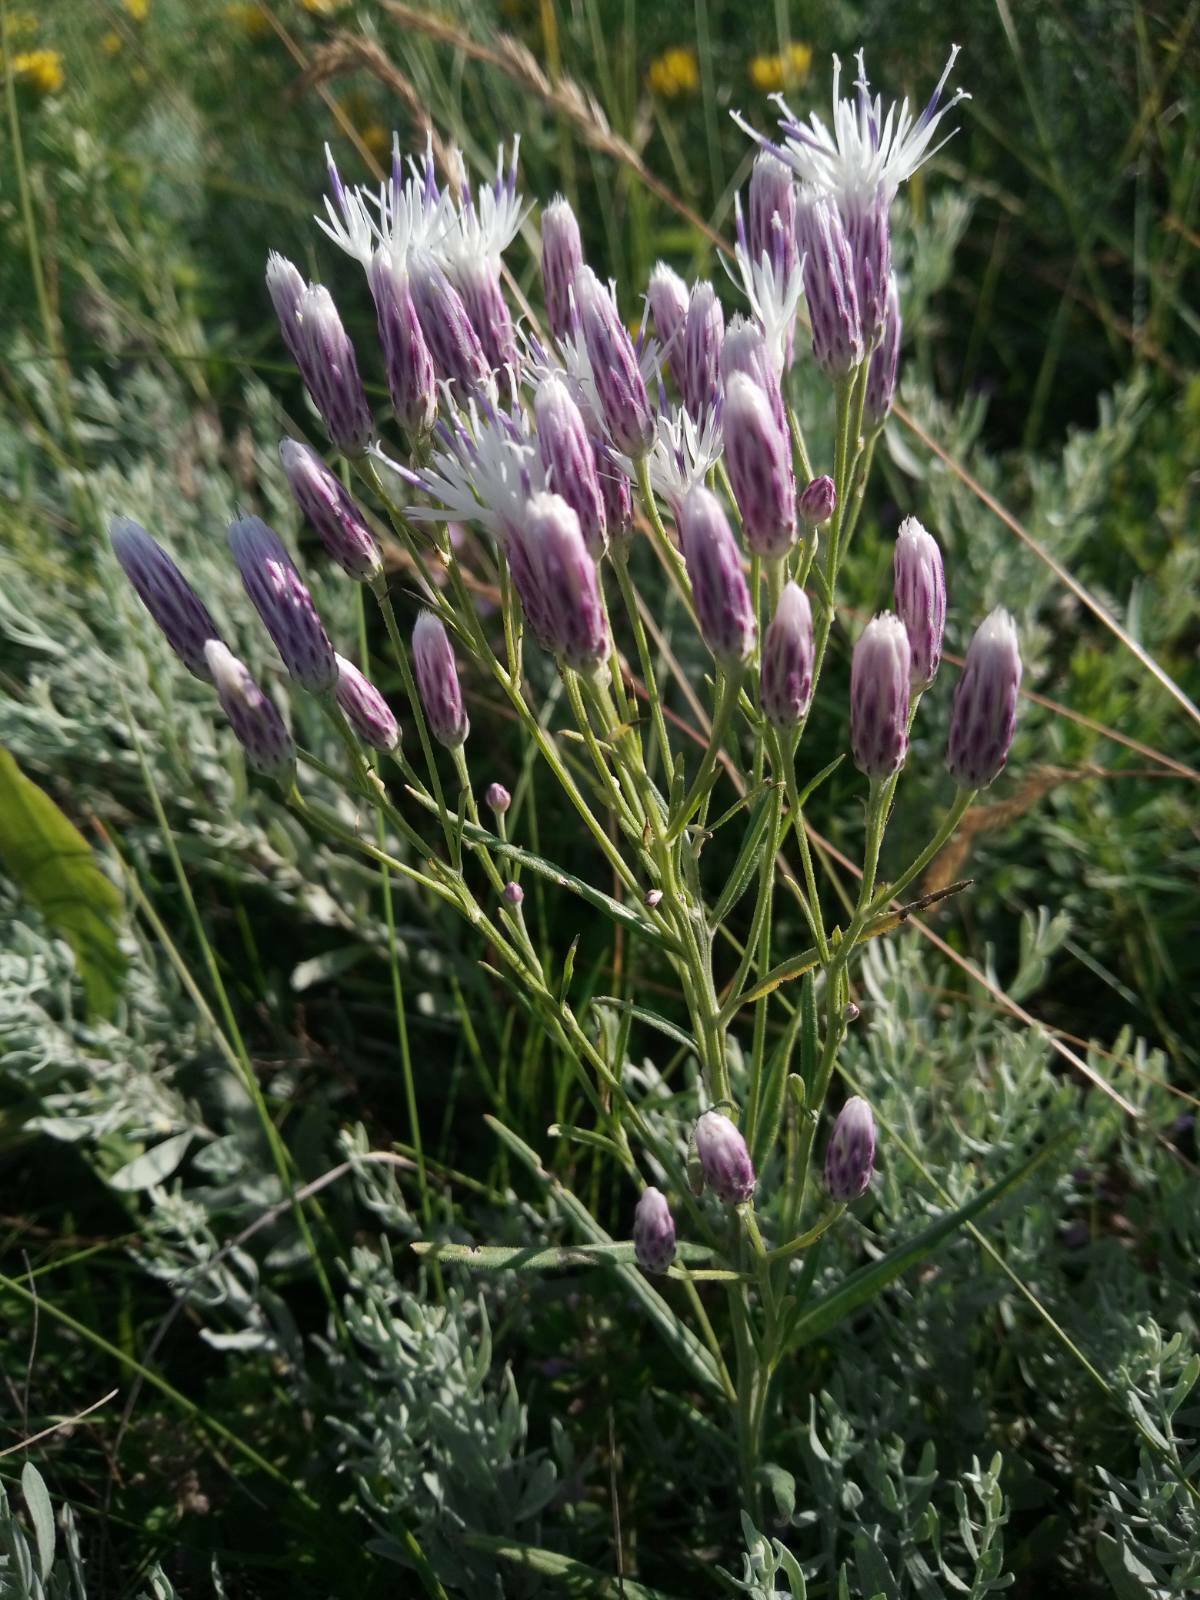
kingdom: Plantae
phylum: Tracheophyta
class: Magnoliopsida
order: Asterales
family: Asteraceae
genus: Jurinea
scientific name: Jurinea multiflora
